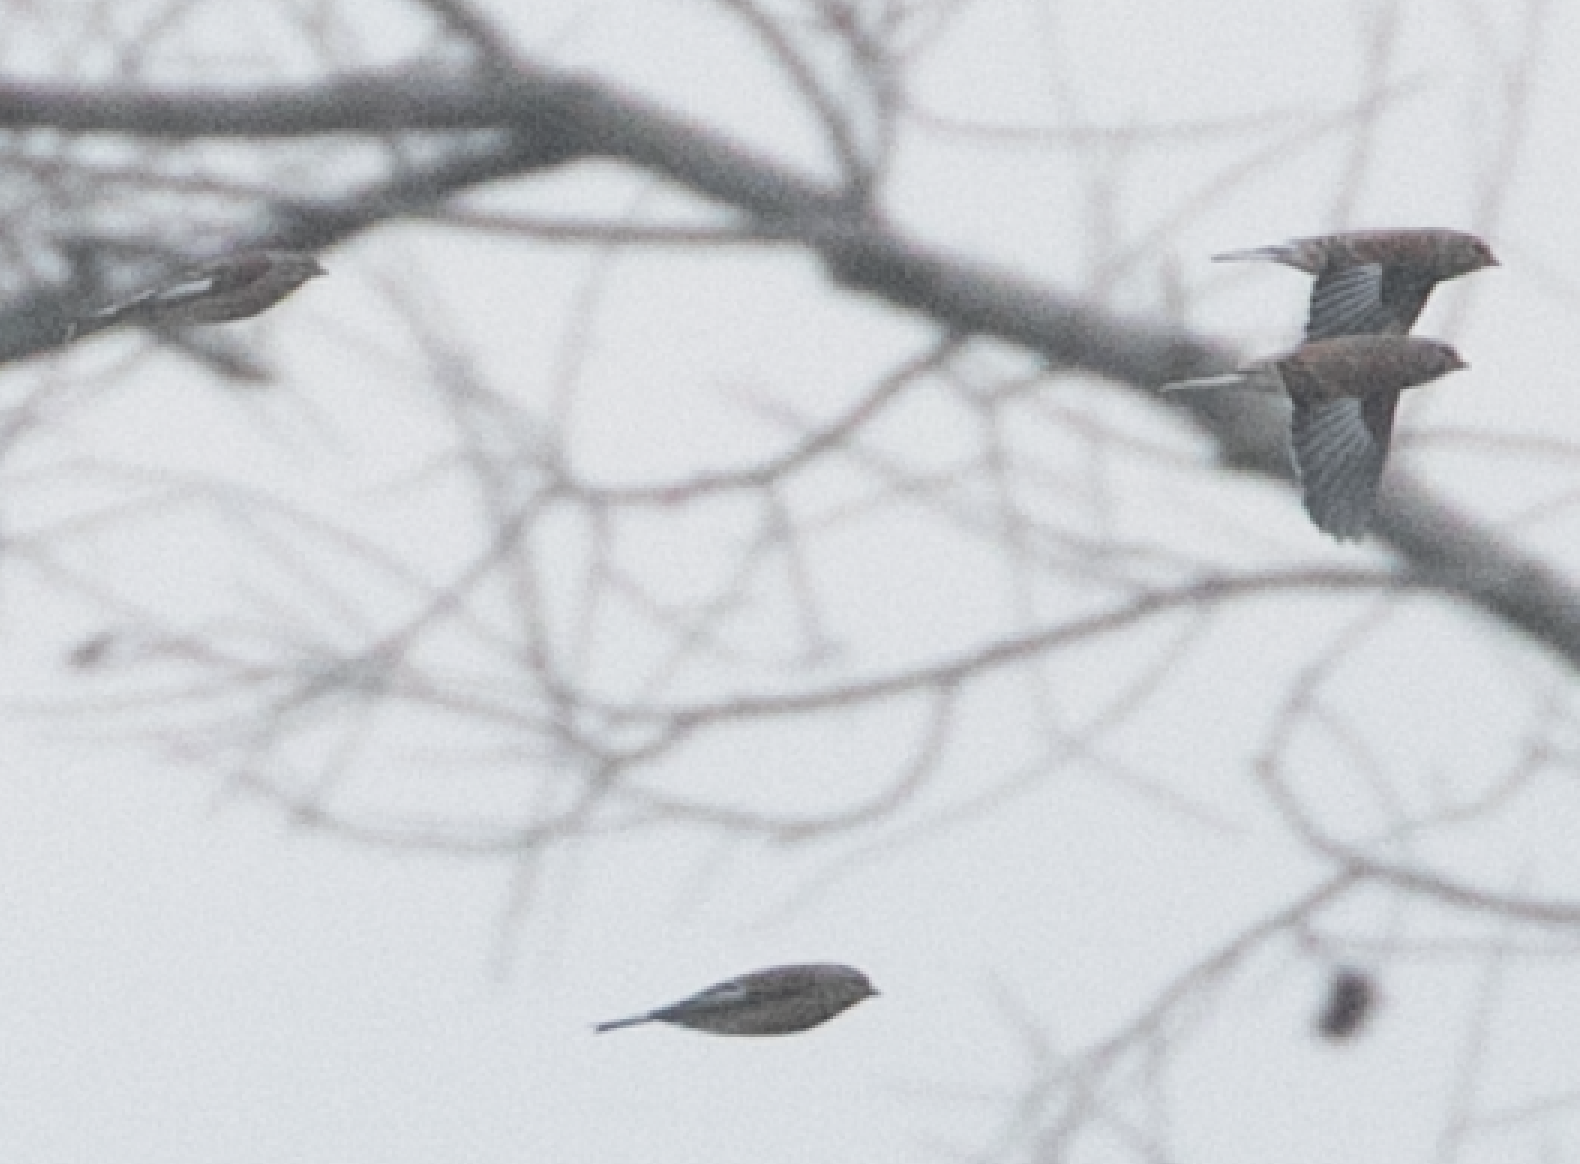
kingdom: Animalia
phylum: Chordata
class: Aves
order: Passeriformes
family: Fringillidae
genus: Linaria
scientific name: Linaria cannabina
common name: Common linnet
